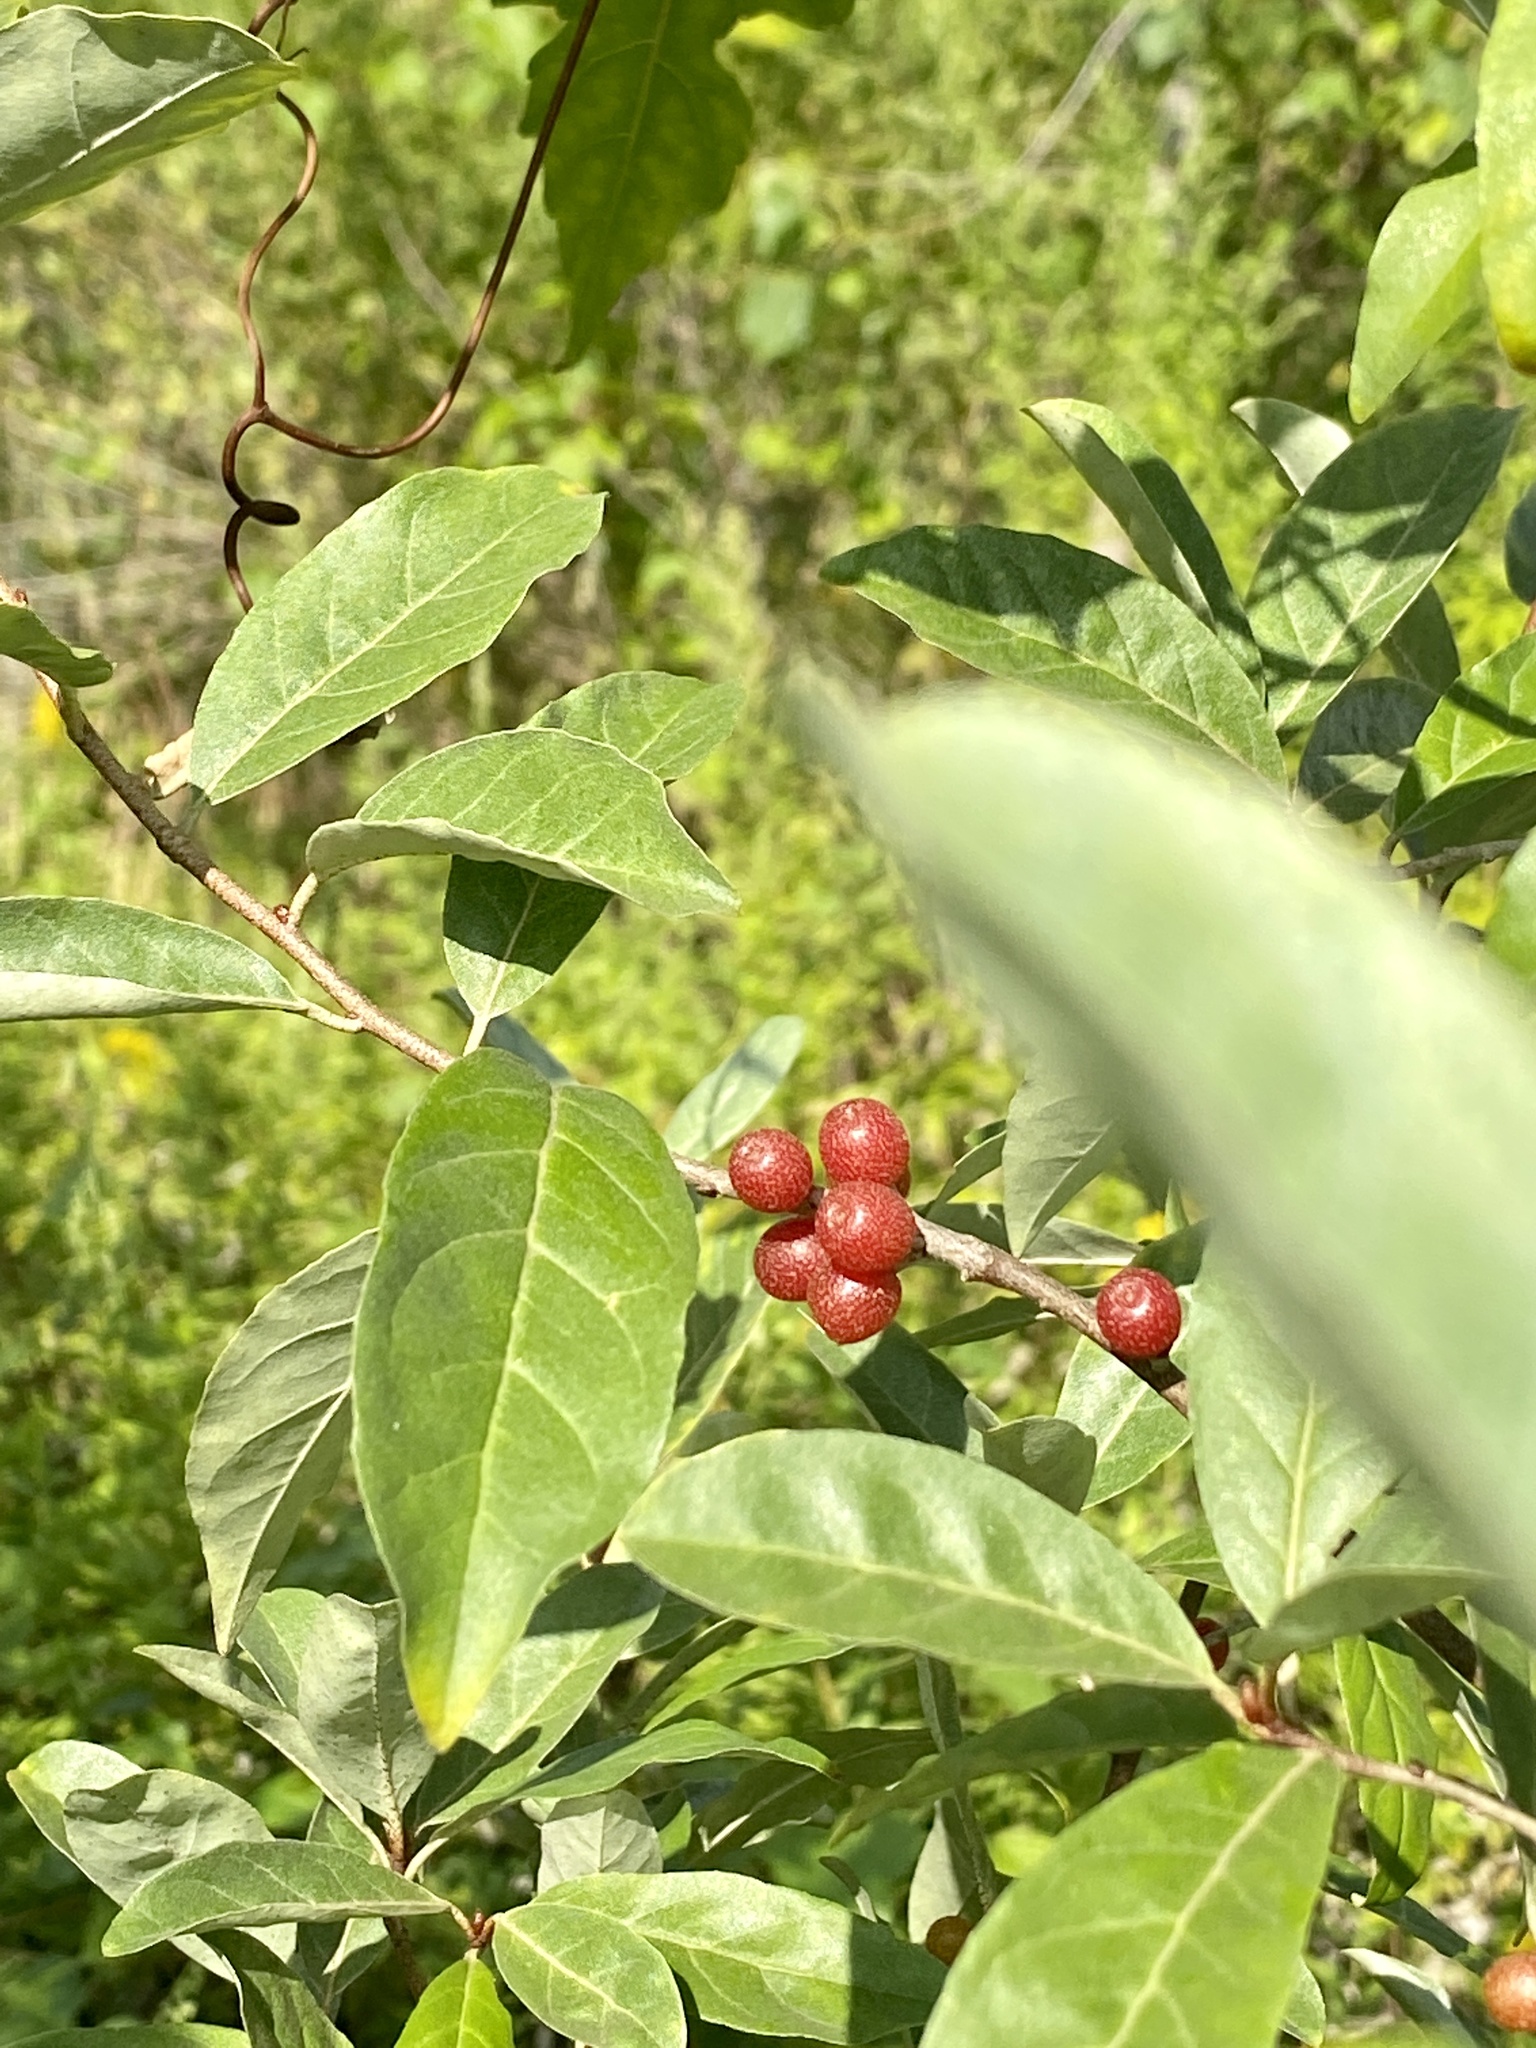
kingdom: Plantae
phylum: Tracheophyta
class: Magnoliopsida
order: Rosales
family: Elaeagnaceae
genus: Elaeagnus
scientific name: Elaeagnus umbellata
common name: Autumn olive
